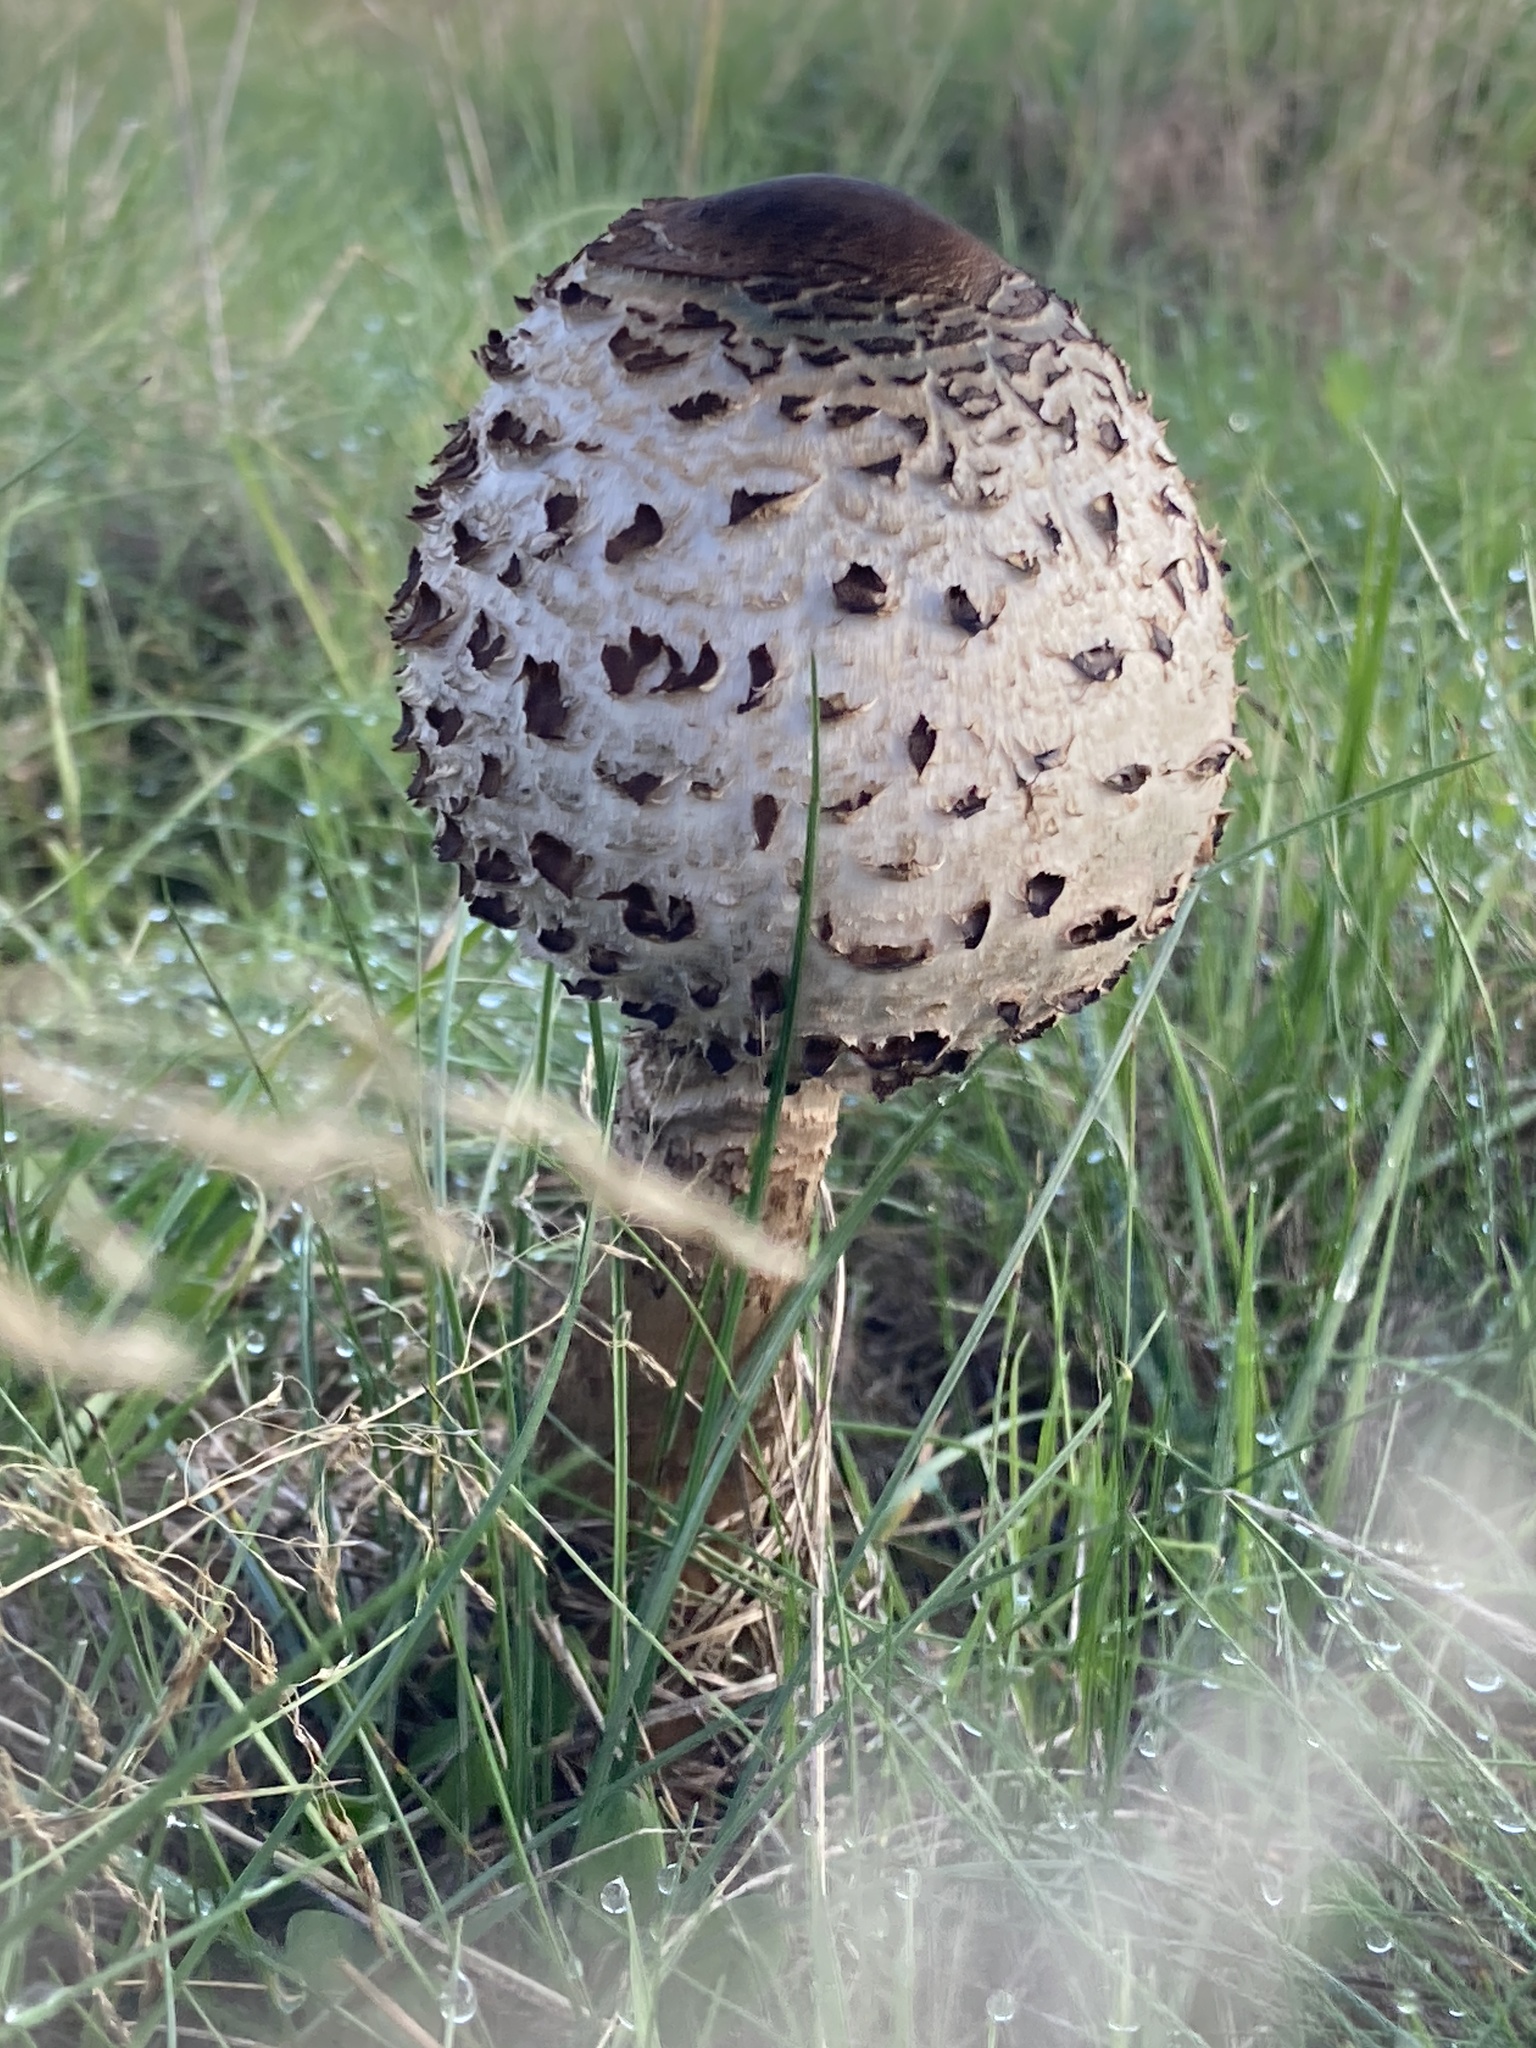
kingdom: Fungi
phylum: Basidiomycota
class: Agaricomycetes
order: Agaricales
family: Agaricaceae
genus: Macrolepiota
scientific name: Macrolepiota procera
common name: Parasol
